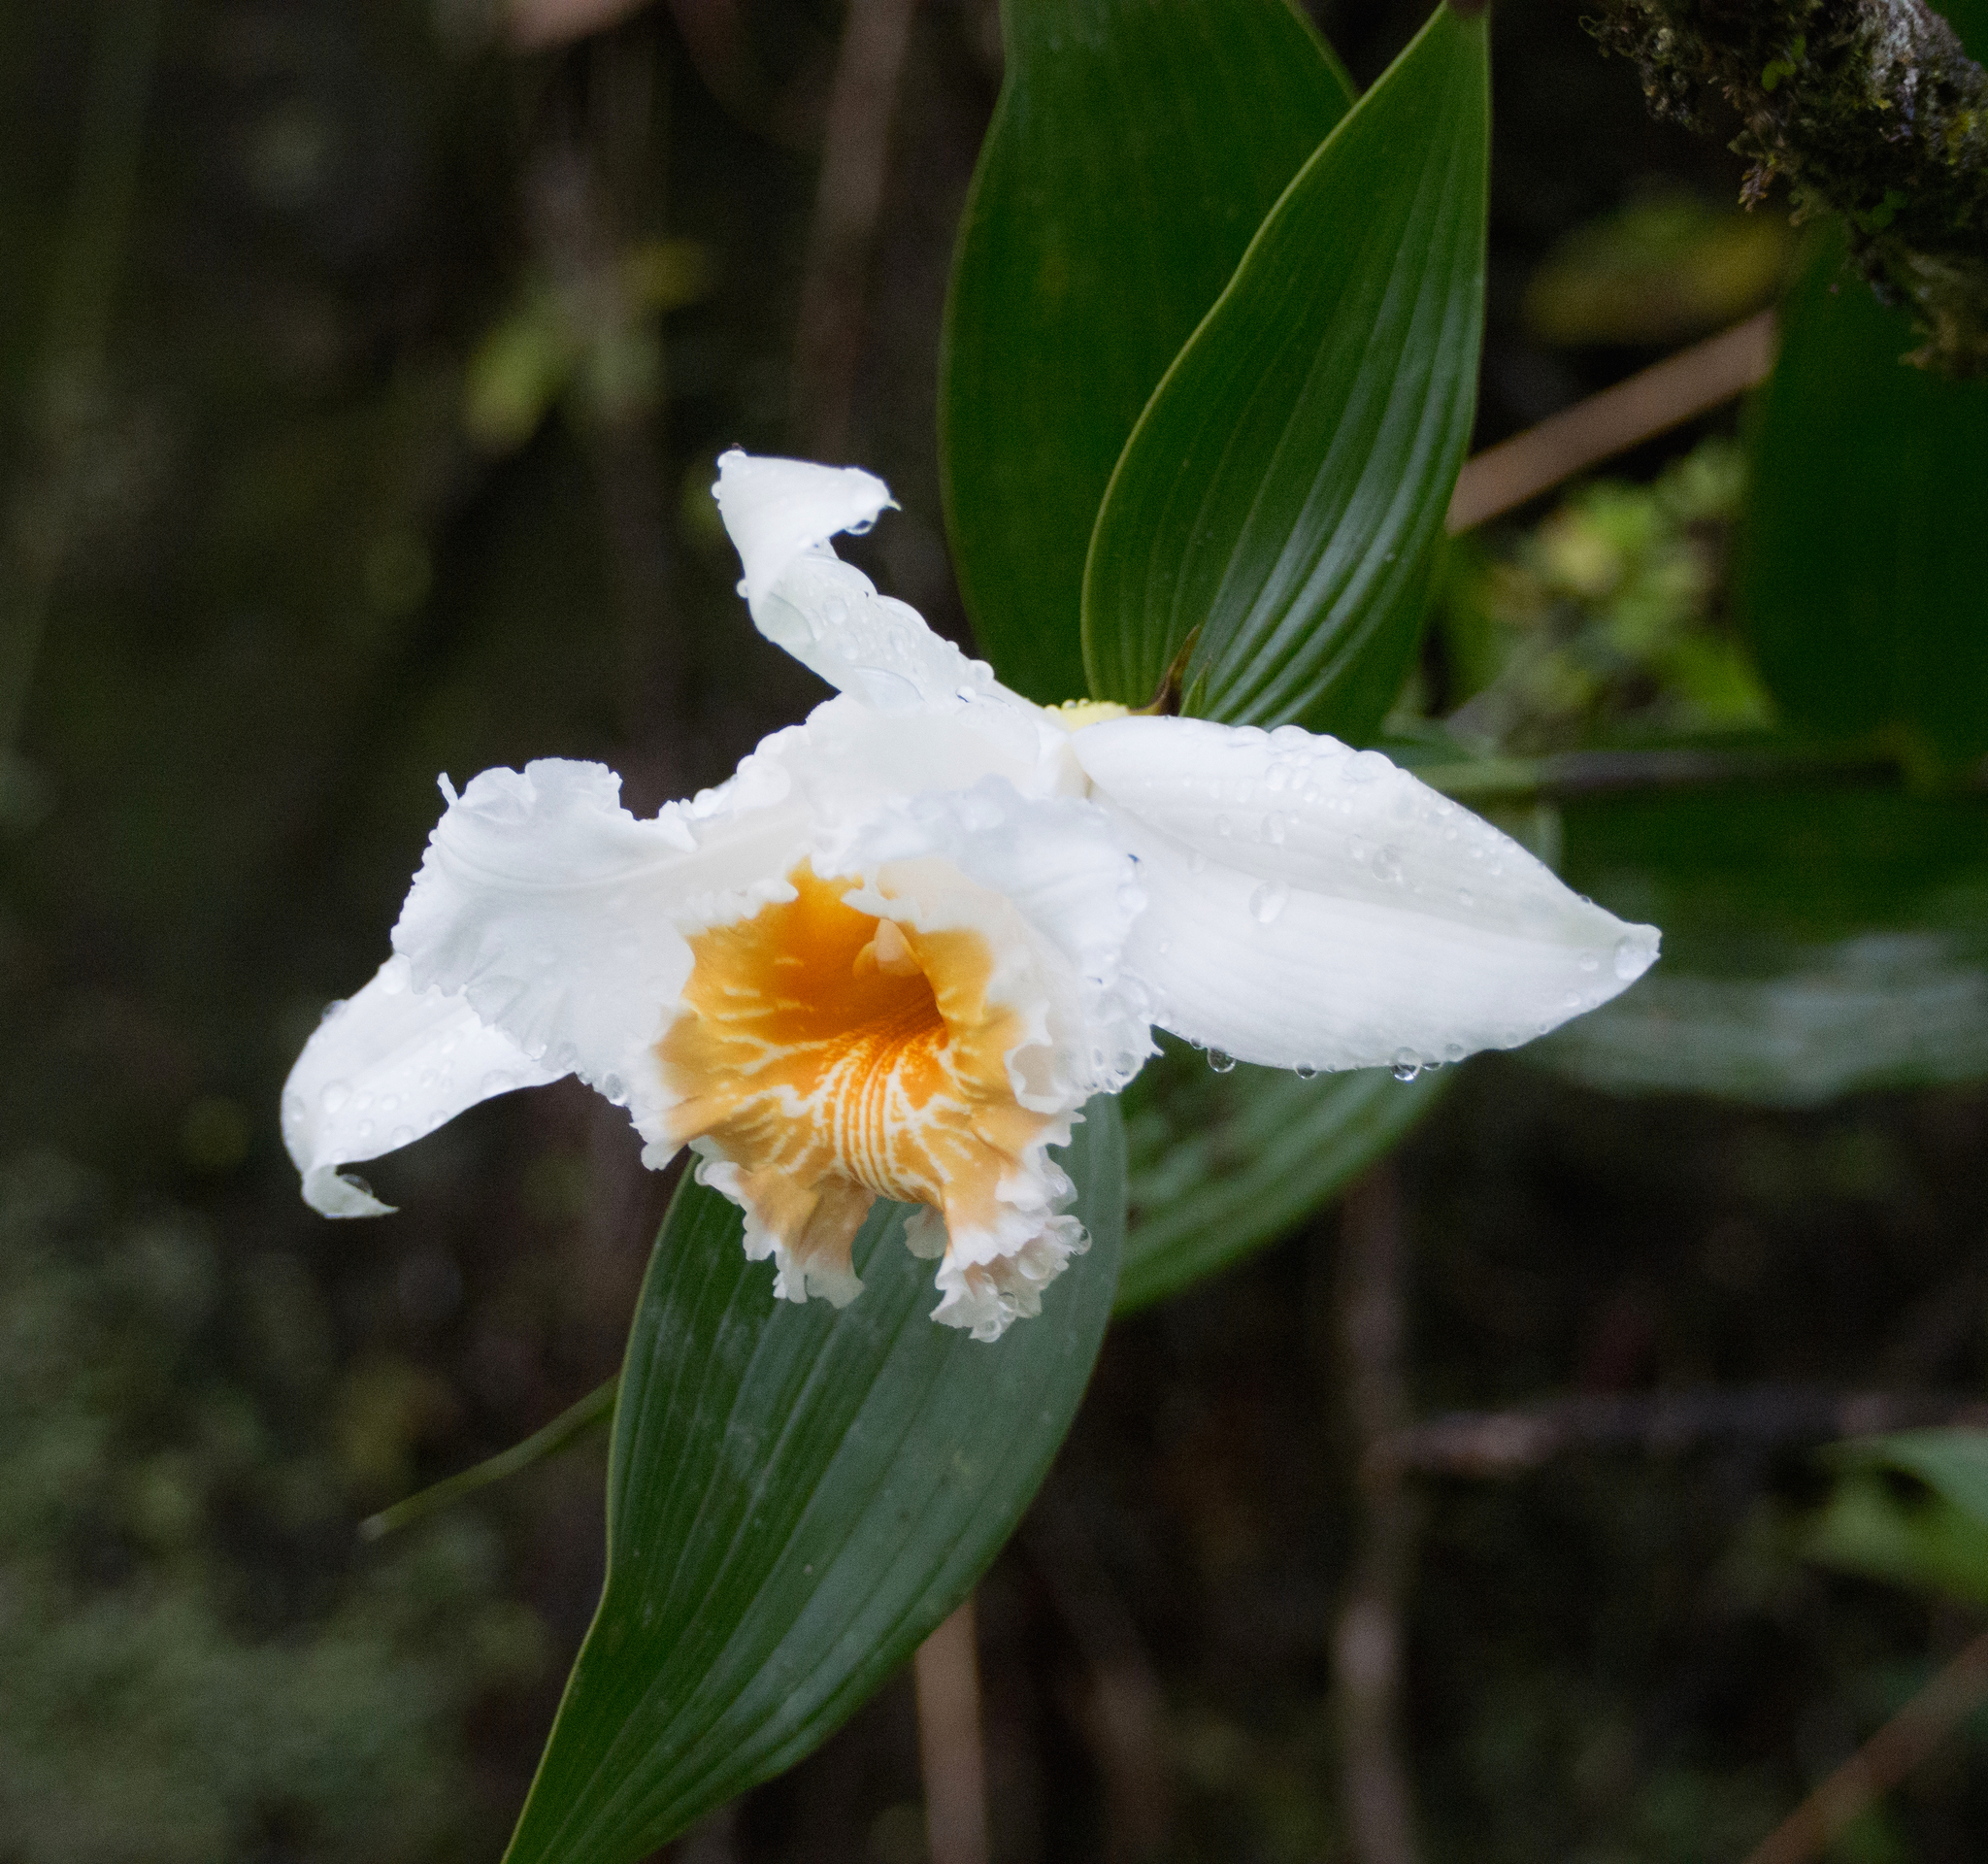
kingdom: Plantae
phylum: Tracheophyta
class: Liliopsida
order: Asparagales
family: Orchidaceae
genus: Sobralia
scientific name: Sobralia chrysostoma
